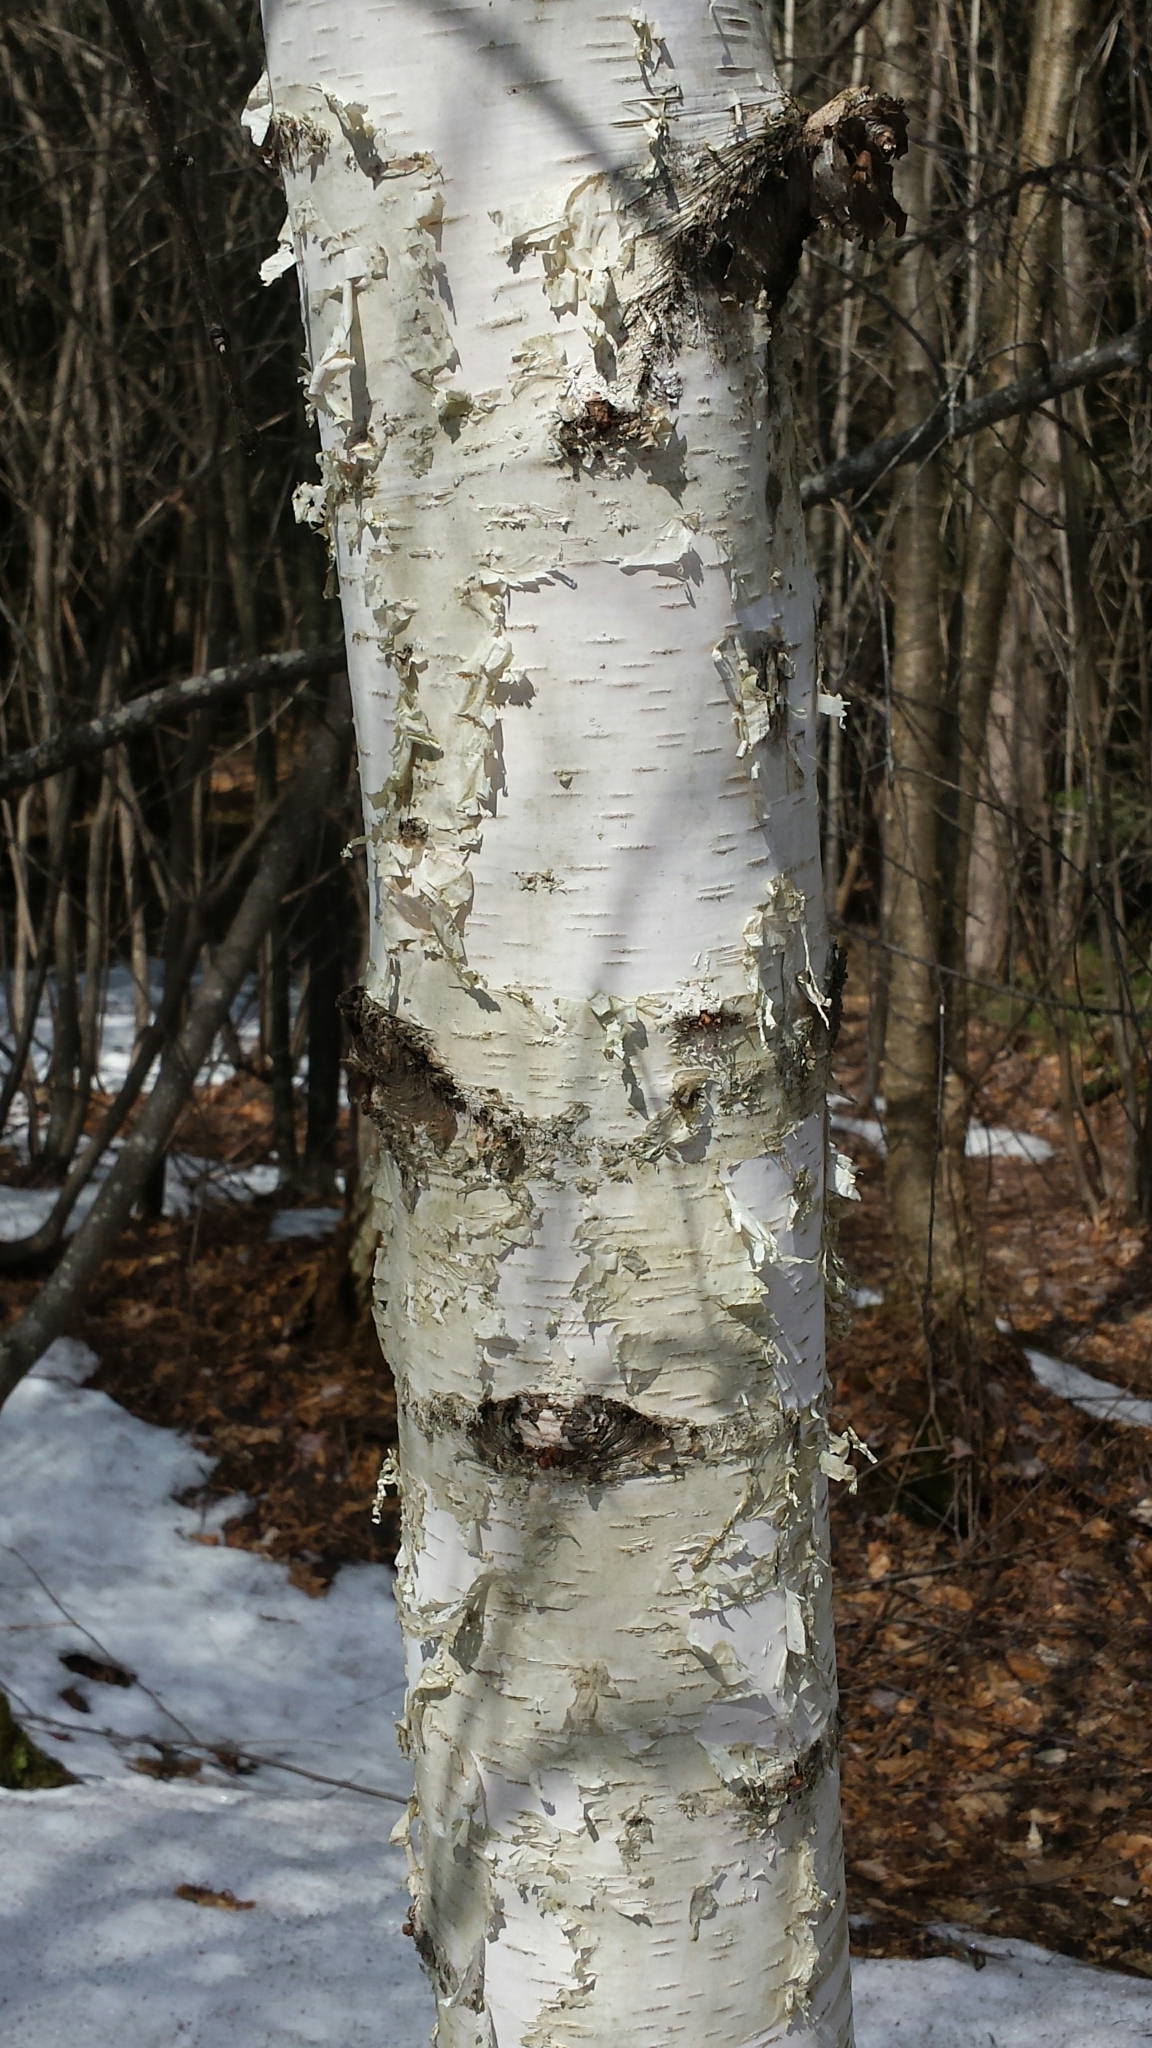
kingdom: Plantae
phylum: Tracheophyta
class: Magnoliopsida
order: Fagales
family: Betulaceae
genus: Betula
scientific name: Betula papyrifera
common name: Paper birch
